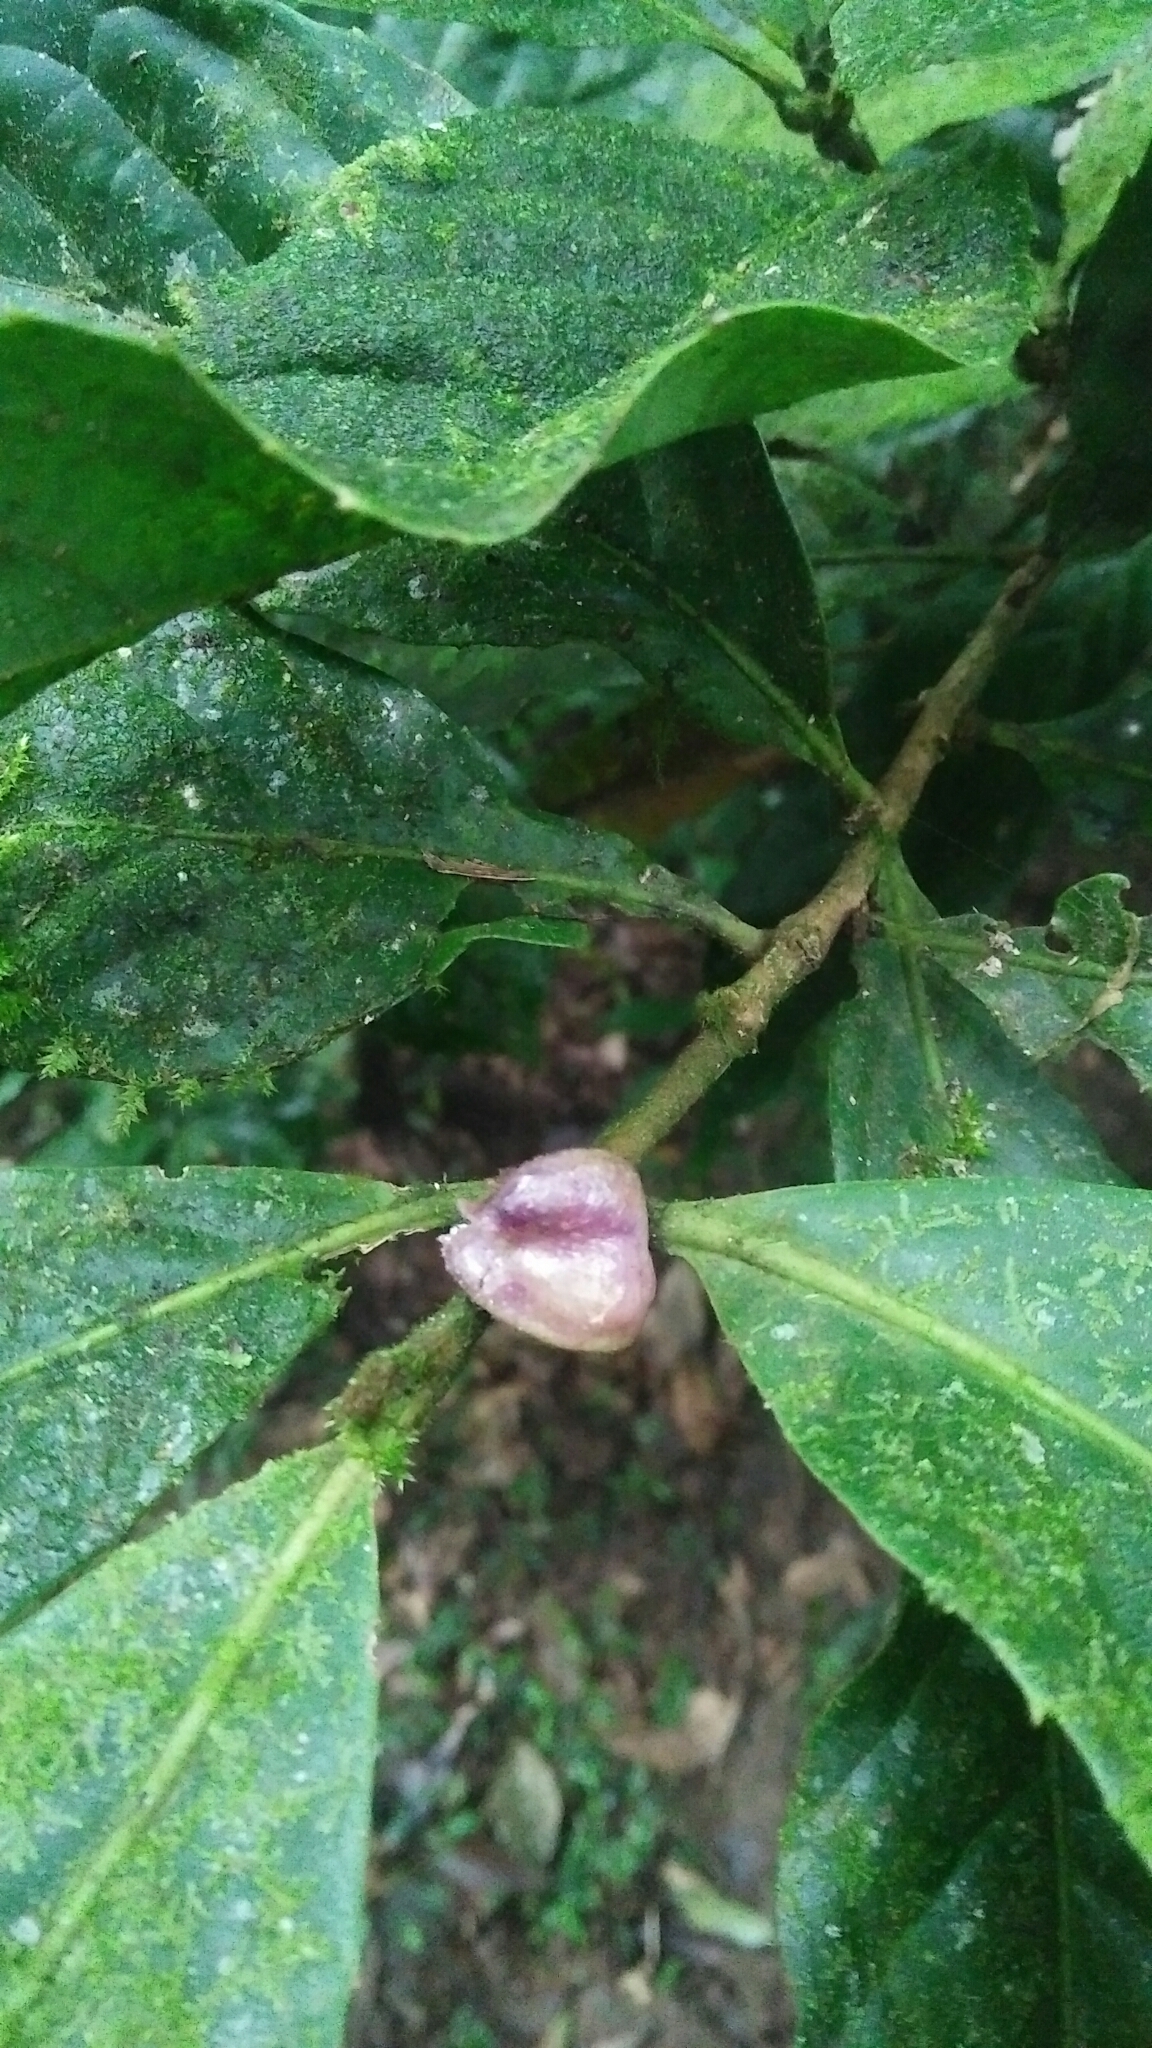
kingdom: Plantae
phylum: Tracheophyta
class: Magnoliopsida
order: Proteales
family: Proteaceae
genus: Helicia
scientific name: Helicia formosana
